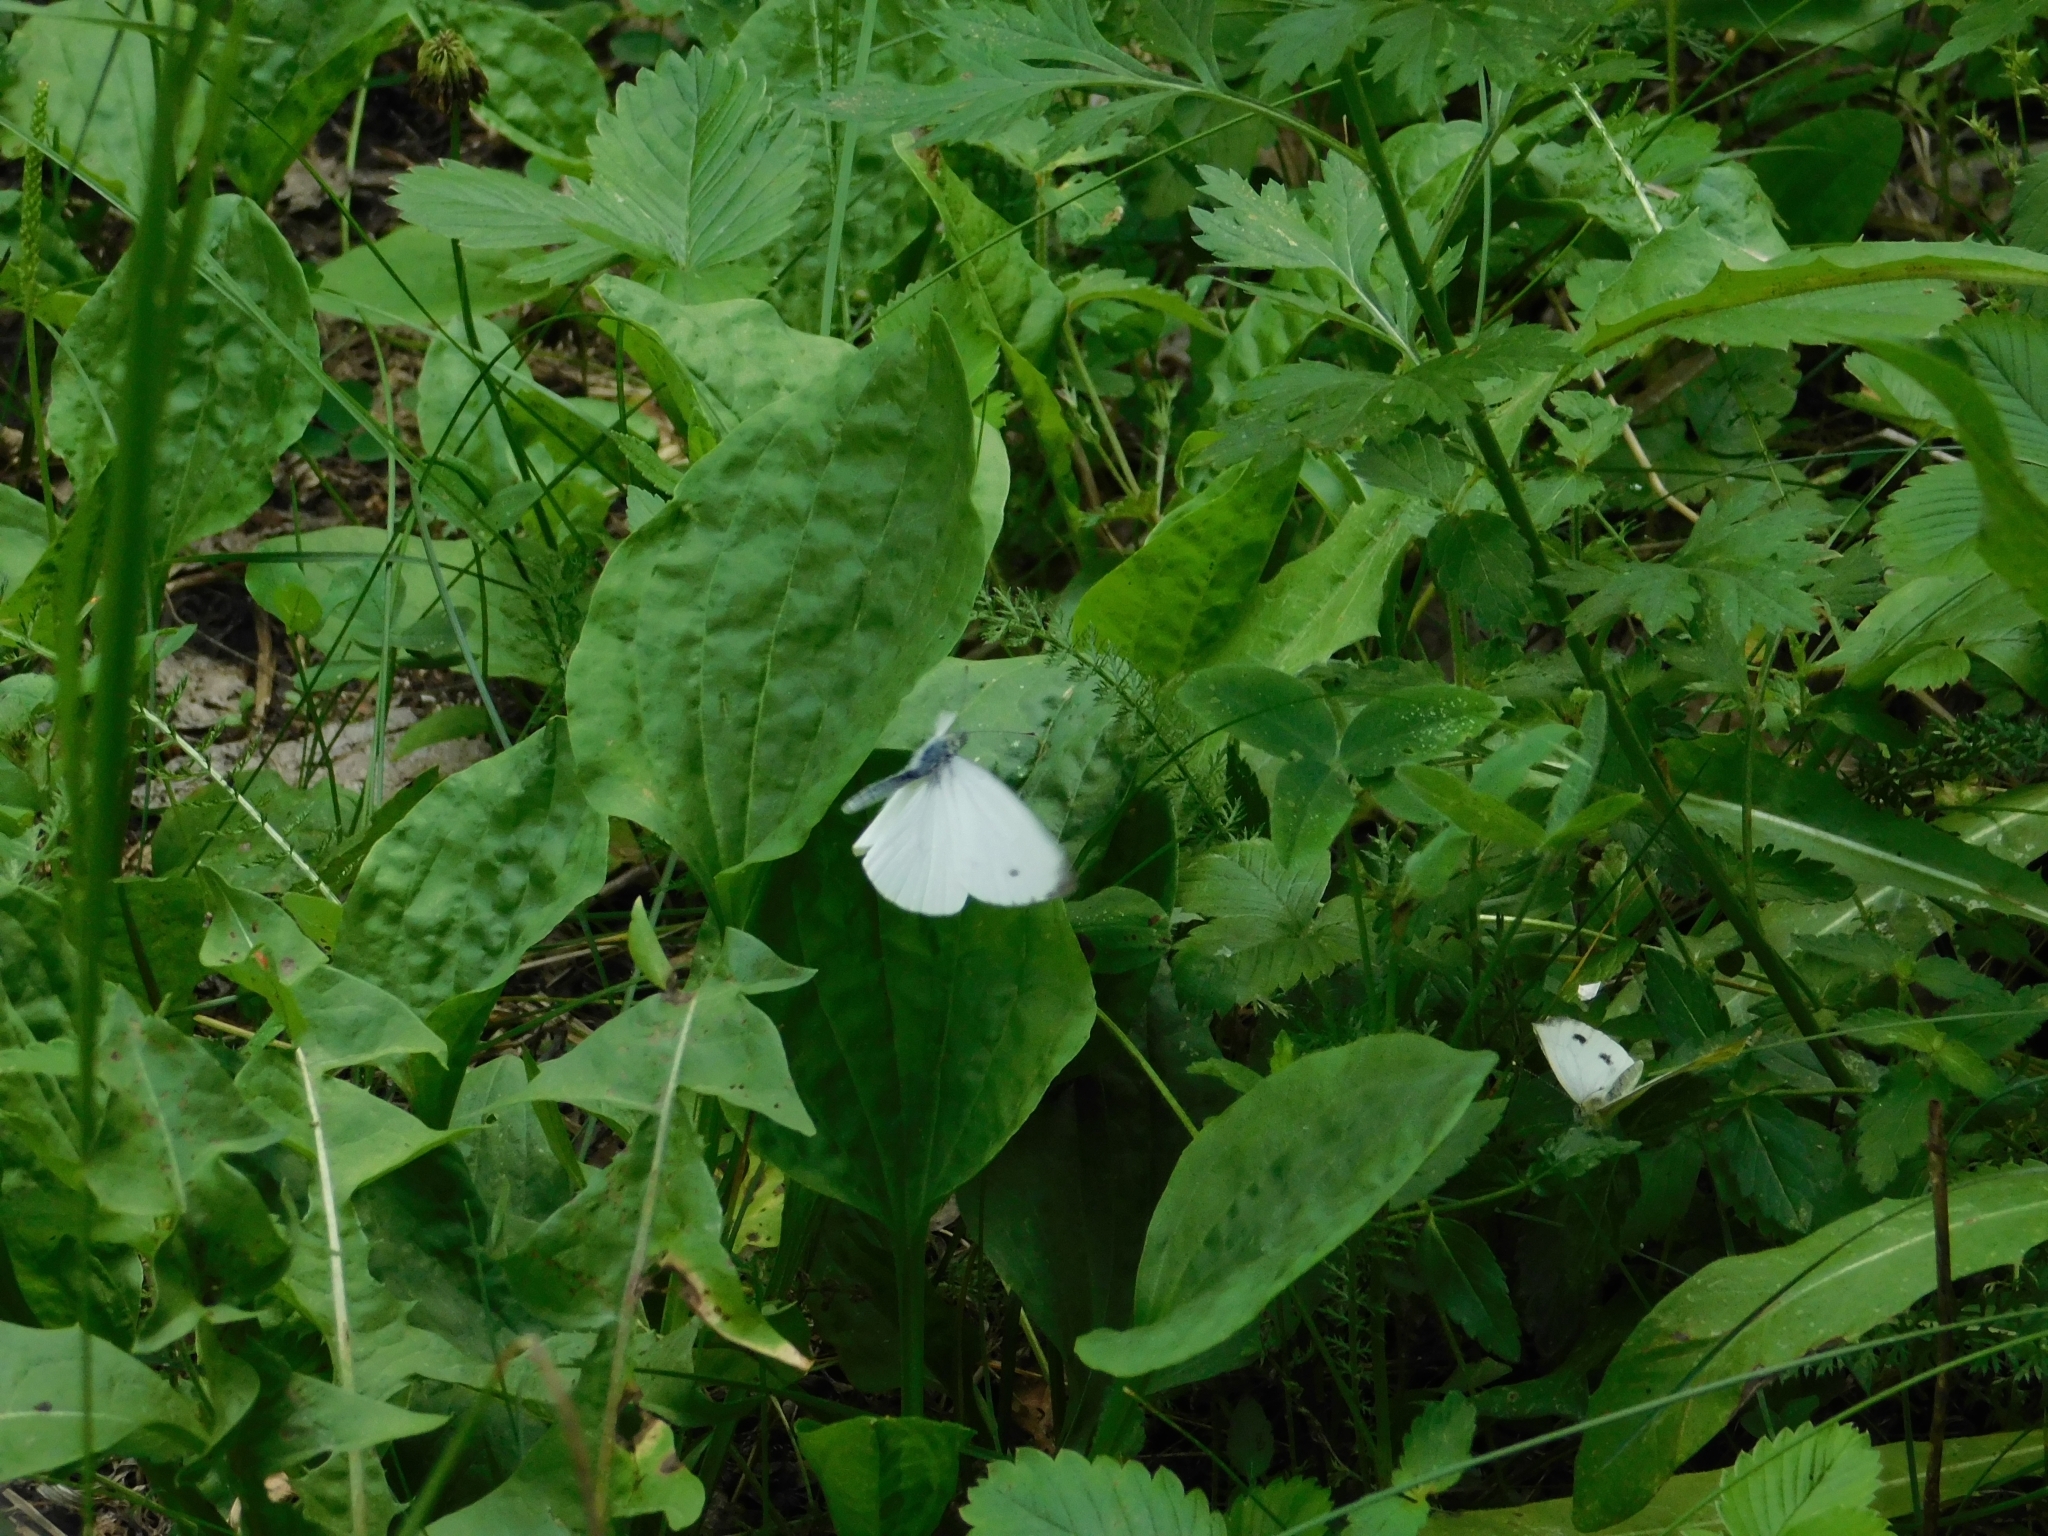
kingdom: Animalia
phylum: Arthropoda
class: Insecta
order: Lepidoptera
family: Pieridae
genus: Pieris
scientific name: Pieris napi
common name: Green-veined white
